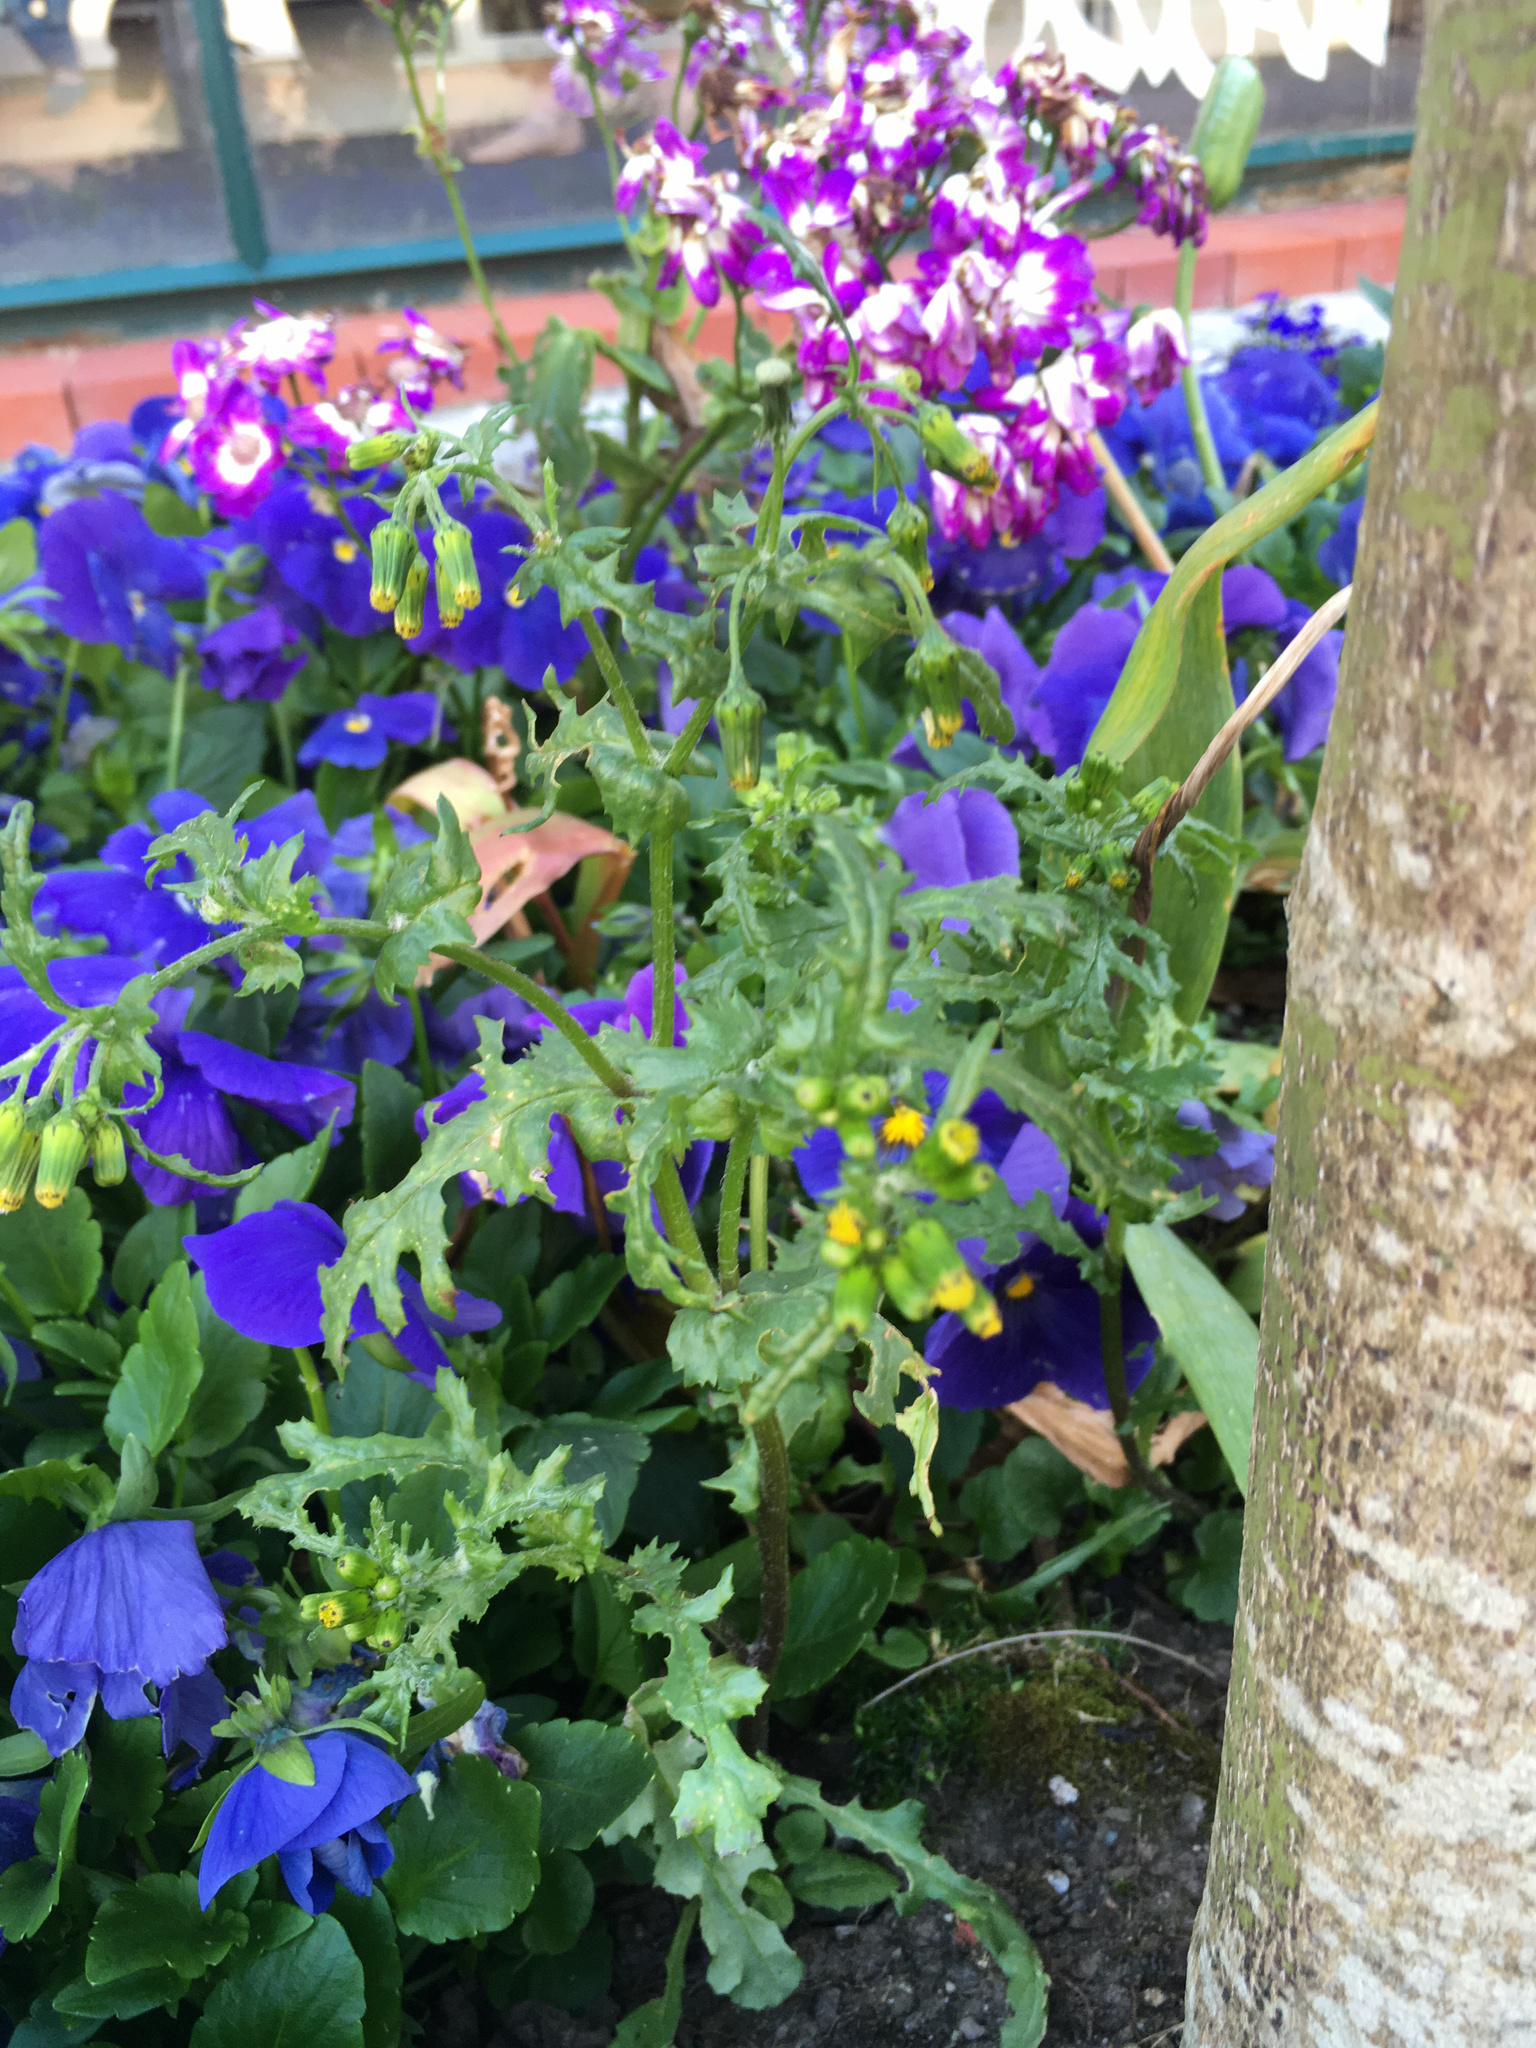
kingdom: Plantae
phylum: Tracheophyta
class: Magnoliopsida
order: Asterales
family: Asteraceae
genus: Senecio
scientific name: Senecio vulgaris
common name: Old-man-in-the-spring
